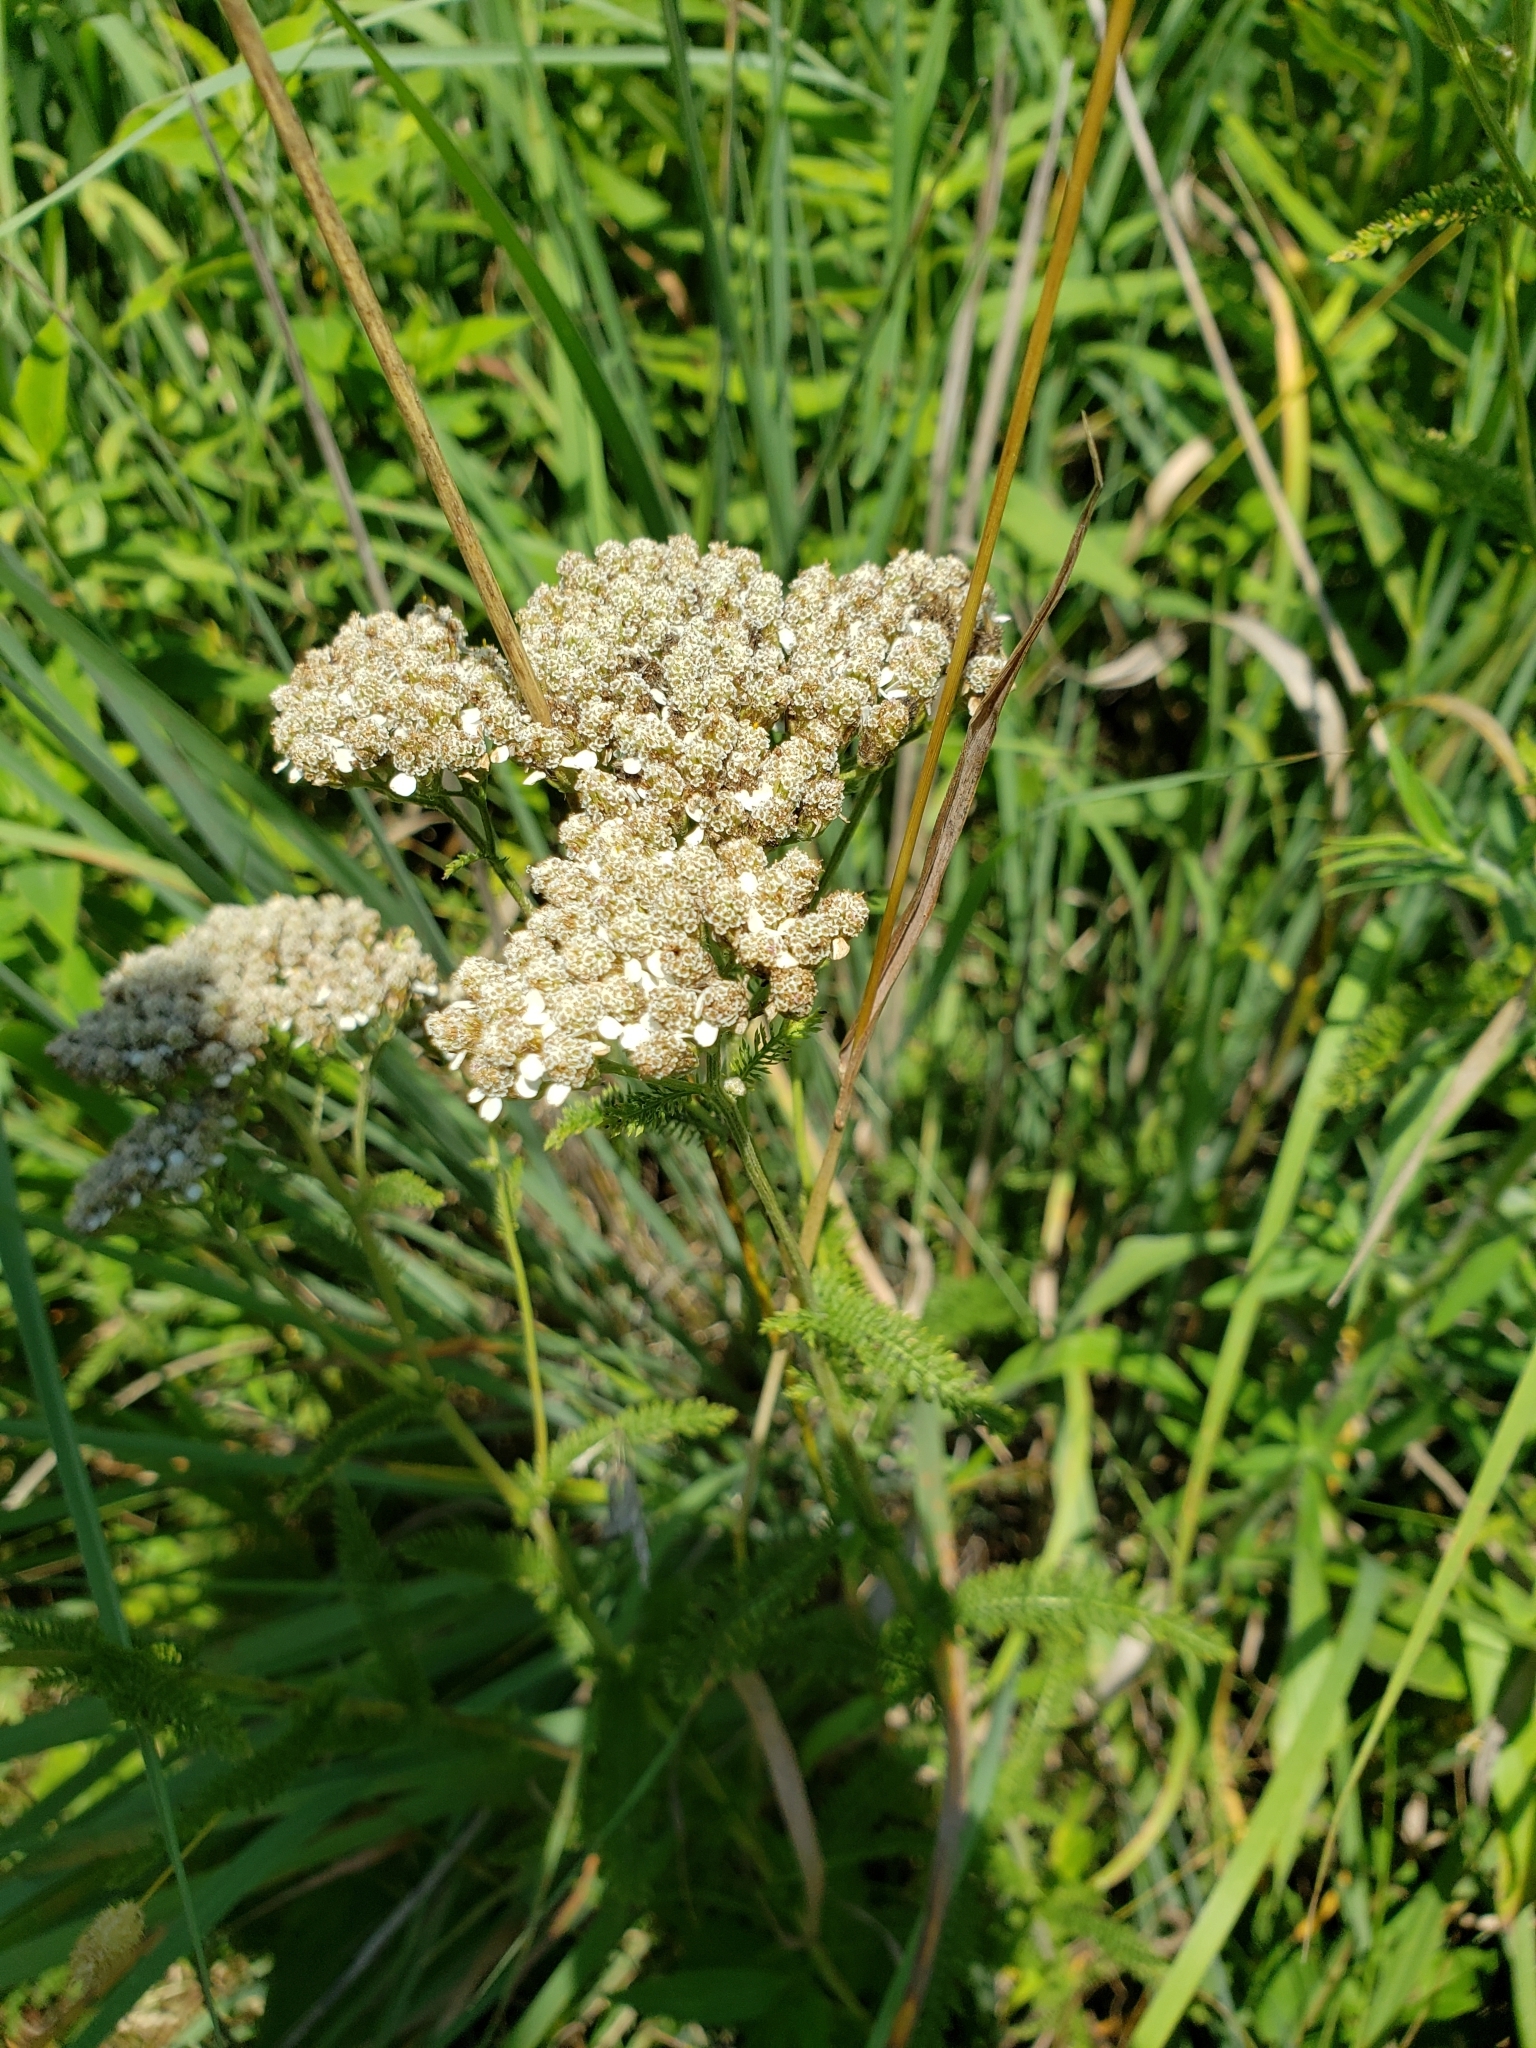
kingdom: Plantae
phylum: Tracheophyta
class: Magnoliopsida
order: Asterales
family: Asteraceae
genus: Achillea
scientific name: Achillea millefolium
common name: Yarrow
